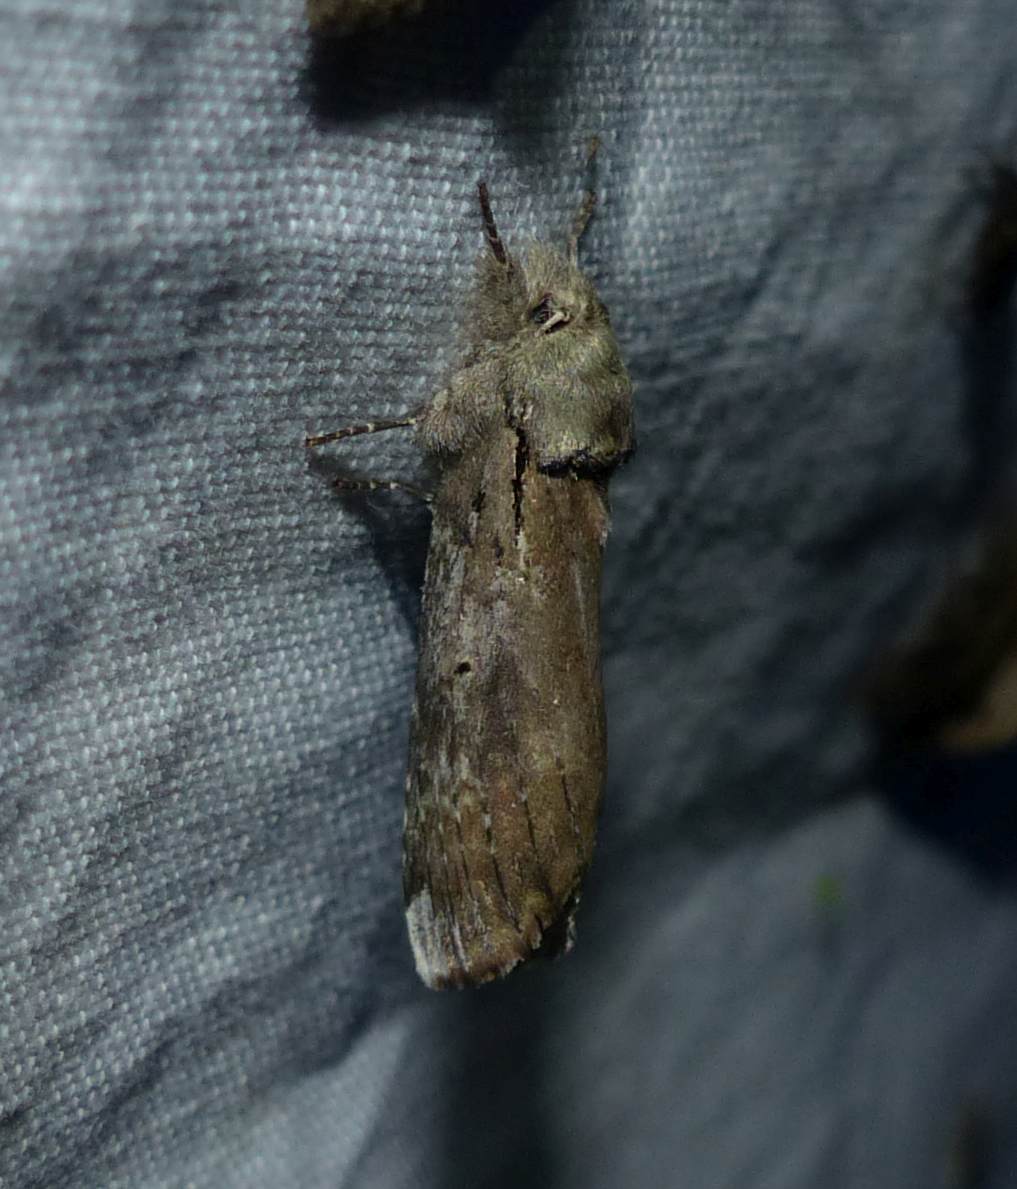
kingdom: Animalia
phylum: Arthropoda
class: Insecta
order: Lepidoptera
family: Notodontidae
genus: Schizura
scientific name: Schizura
